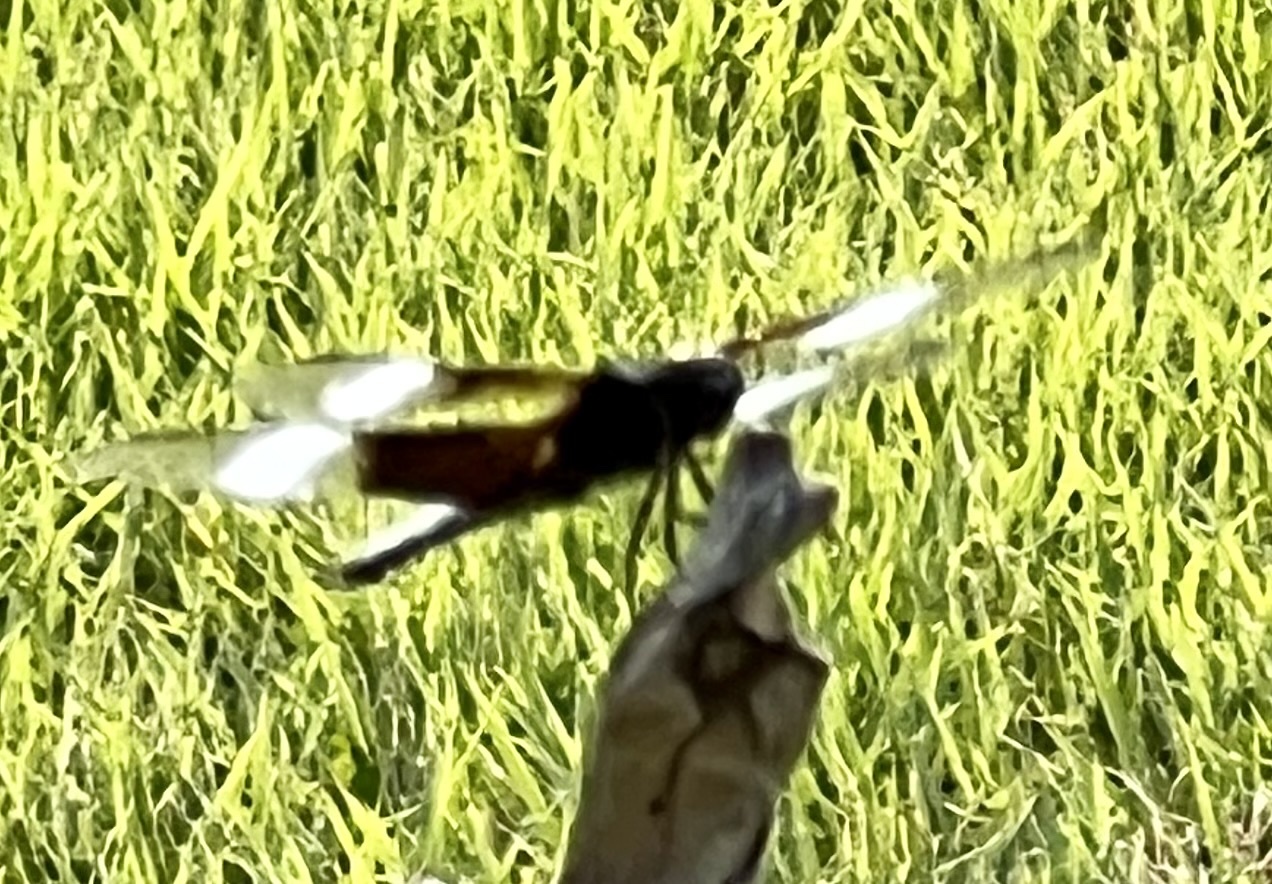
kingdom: Animalia
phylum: Arthropoda
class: Insecta
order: Odonata
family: Libellulidae
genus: Libellula
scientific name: Libellula luctuosa
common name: Widow skimmer
